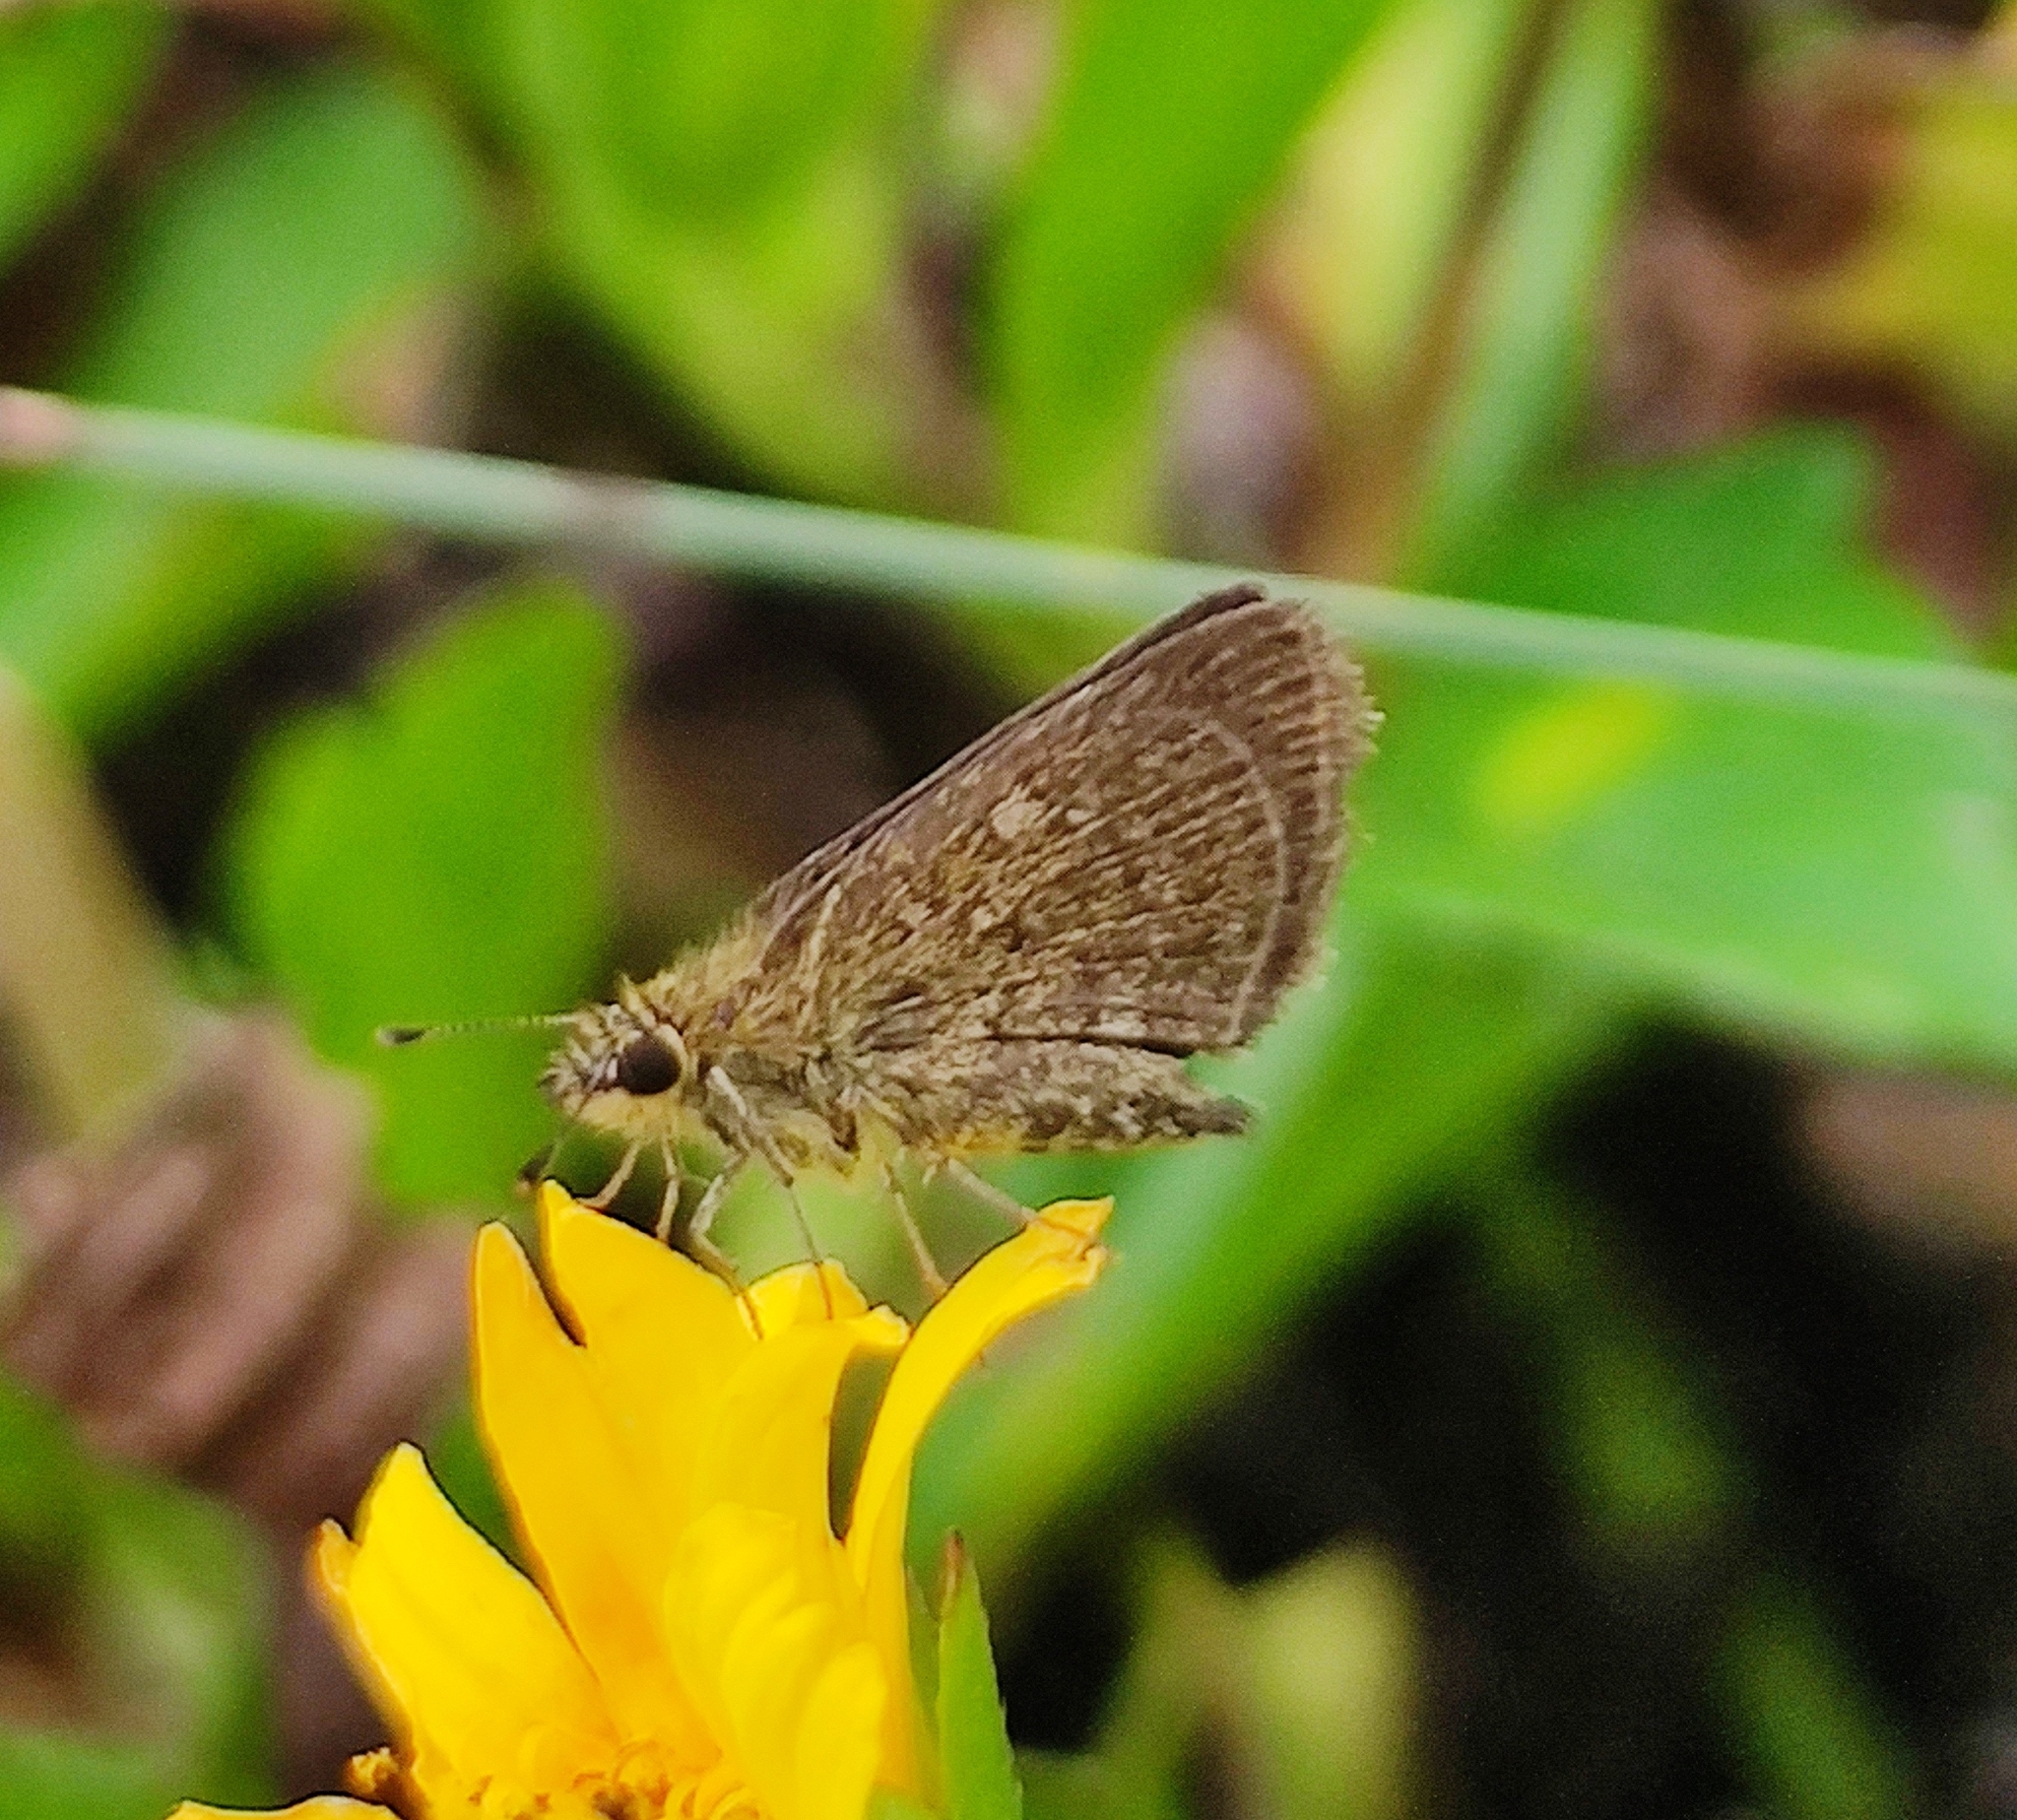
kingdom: Animalia
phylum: Arthropoda
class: Insecta
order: Lepidoptera
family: Hesperiidae
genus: Aeromachus
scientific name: Aeromachus pygmaeus
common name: Pygmy scrub hopper
